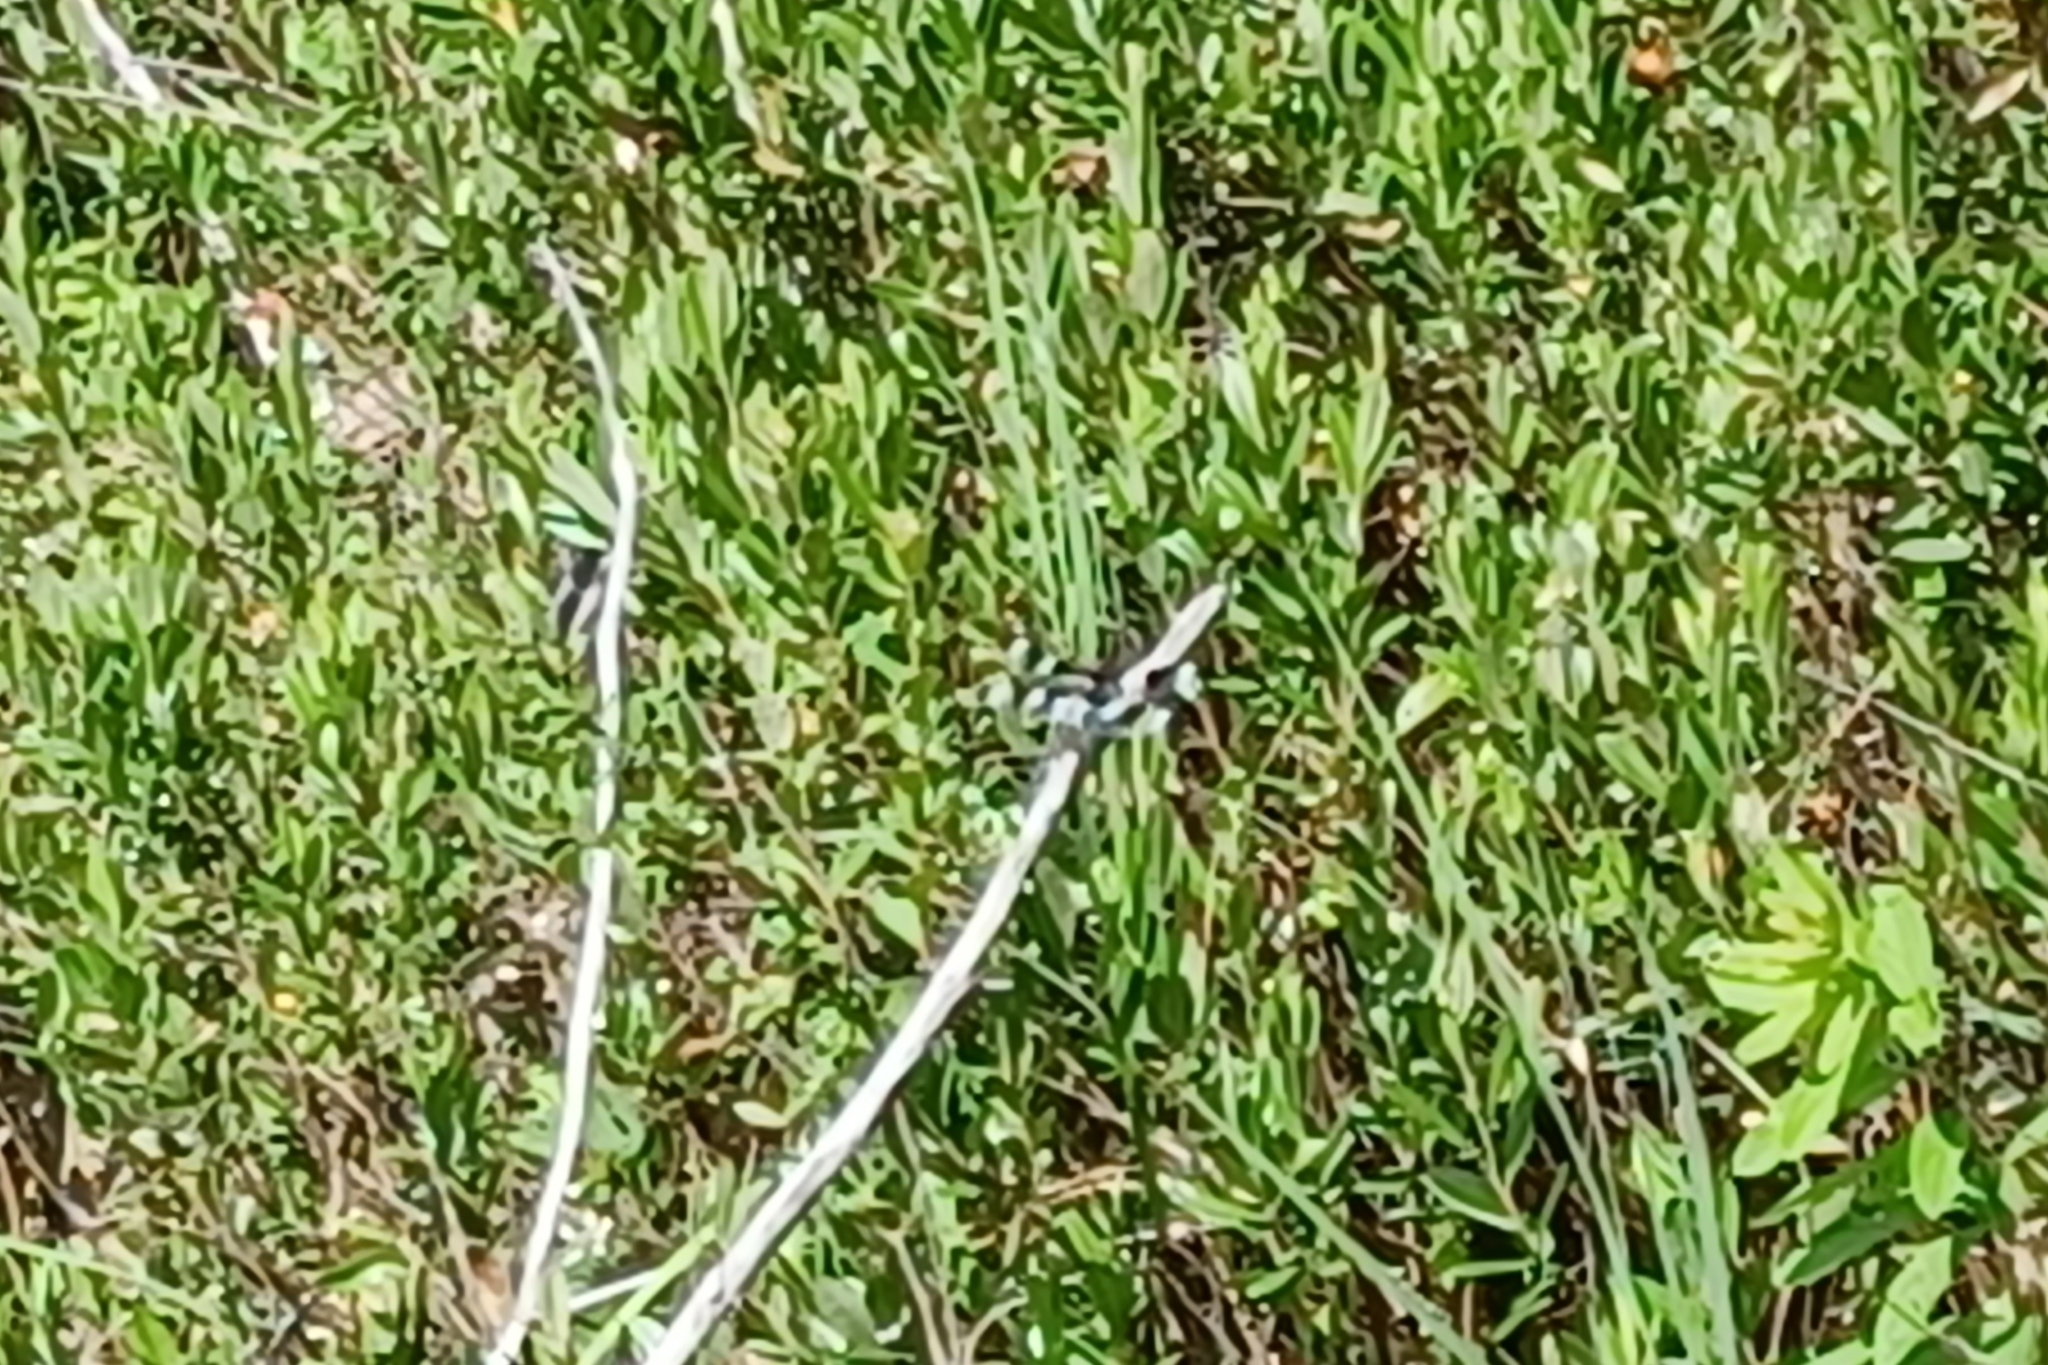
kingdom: Animalia
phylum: Arthropoda
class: Insecta
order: Odonata
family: Libellulidae
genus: Libellula
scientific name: Libellula pulchella
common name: Twelve-spotted skimmer
